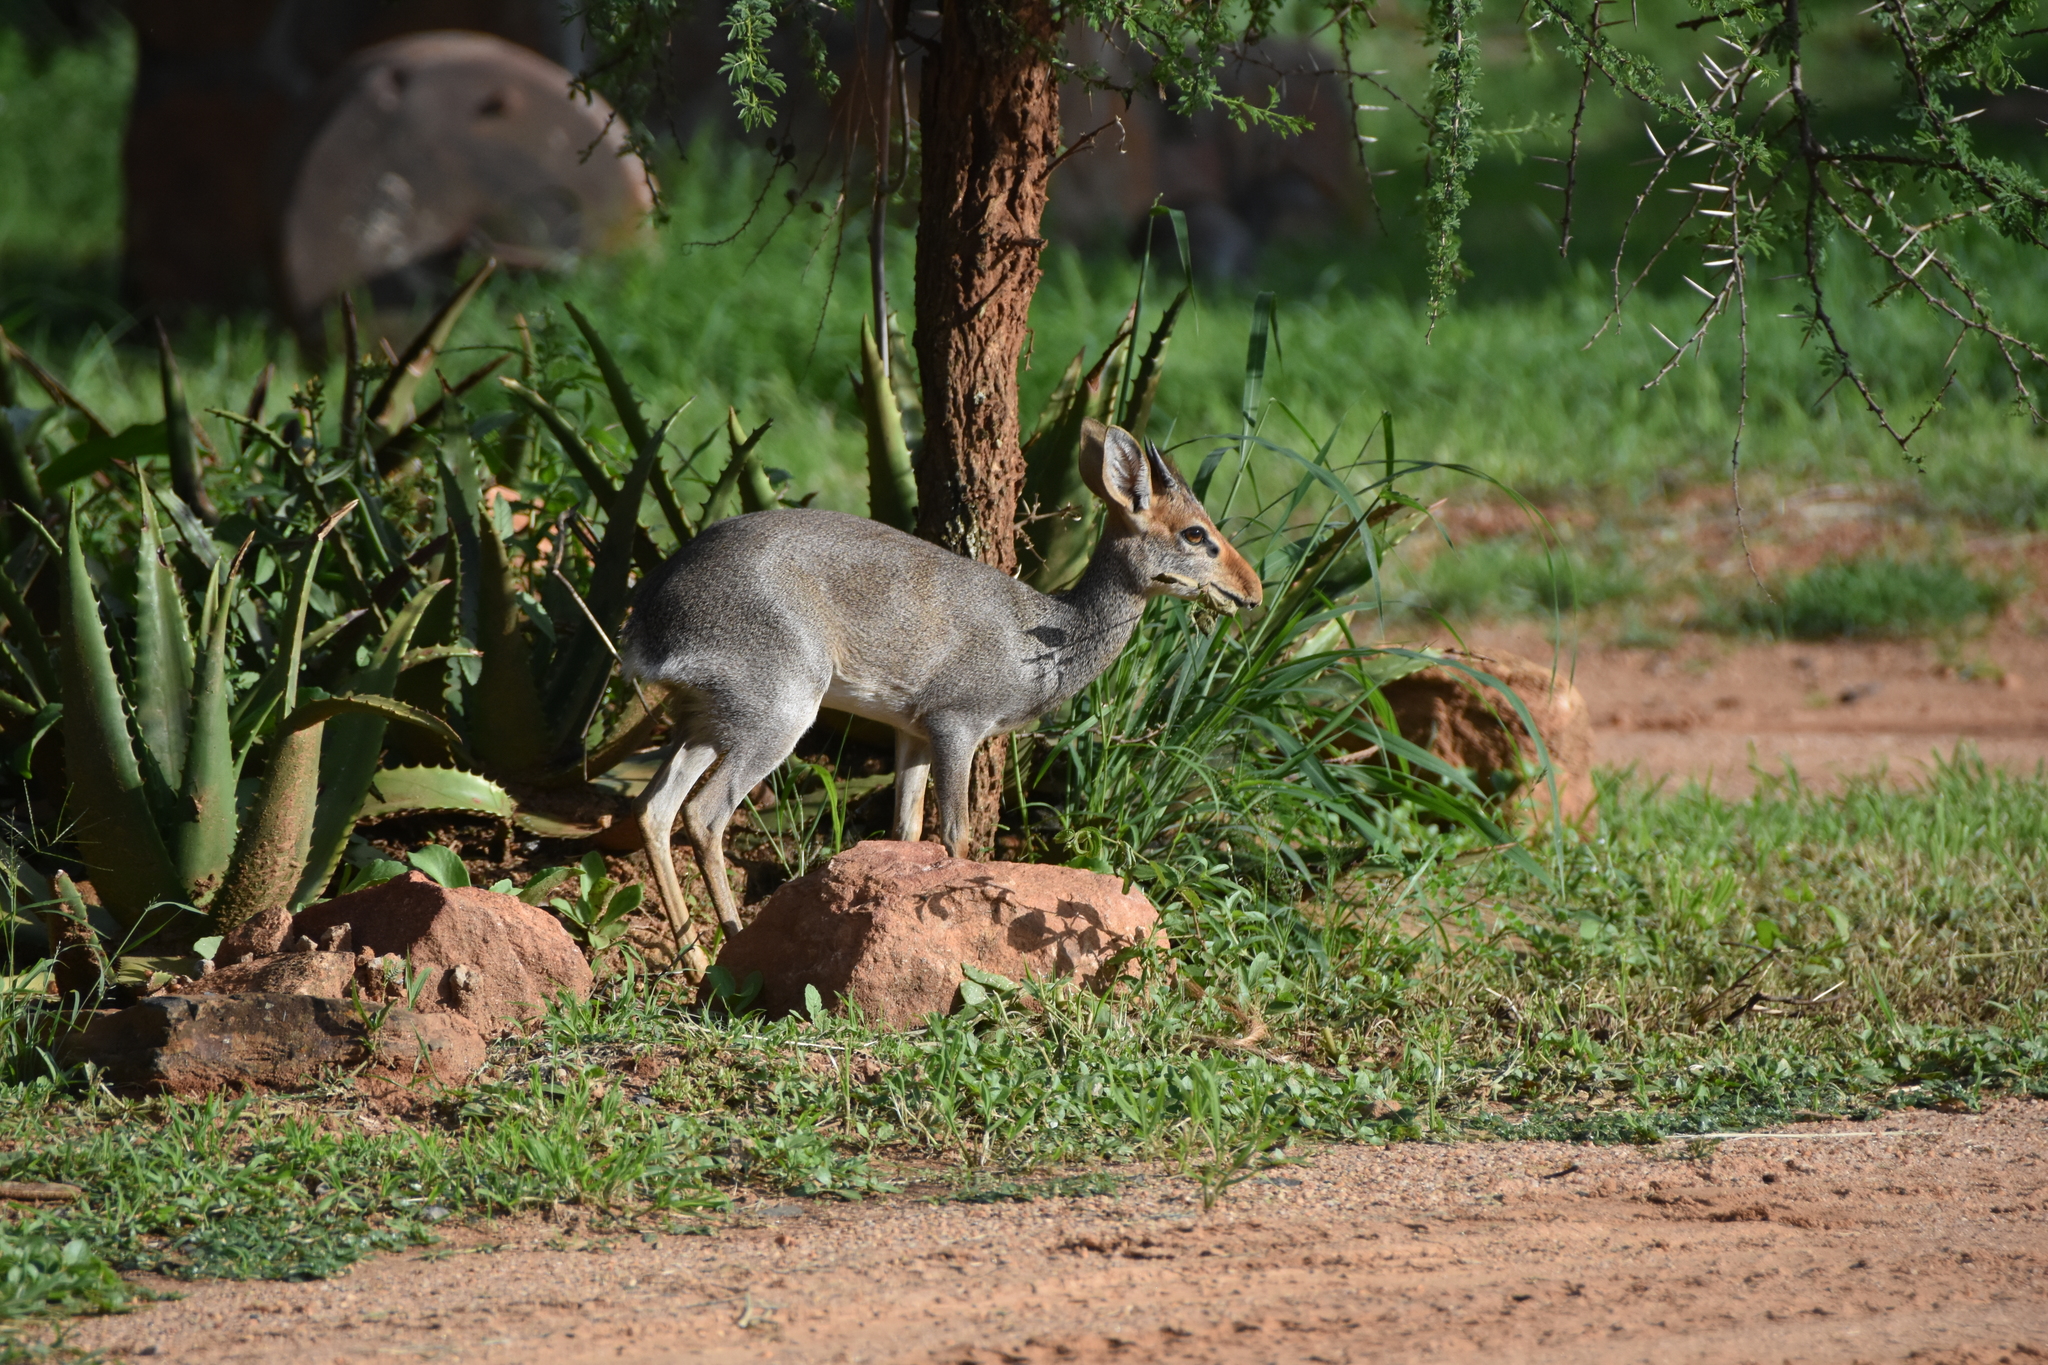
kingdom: Animalia
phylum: Chordata
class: Mammalia
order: Artiodactyla
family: Bovidae
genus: Madoqua
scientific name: Madoqua guentheri
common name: Günther's dikdik
